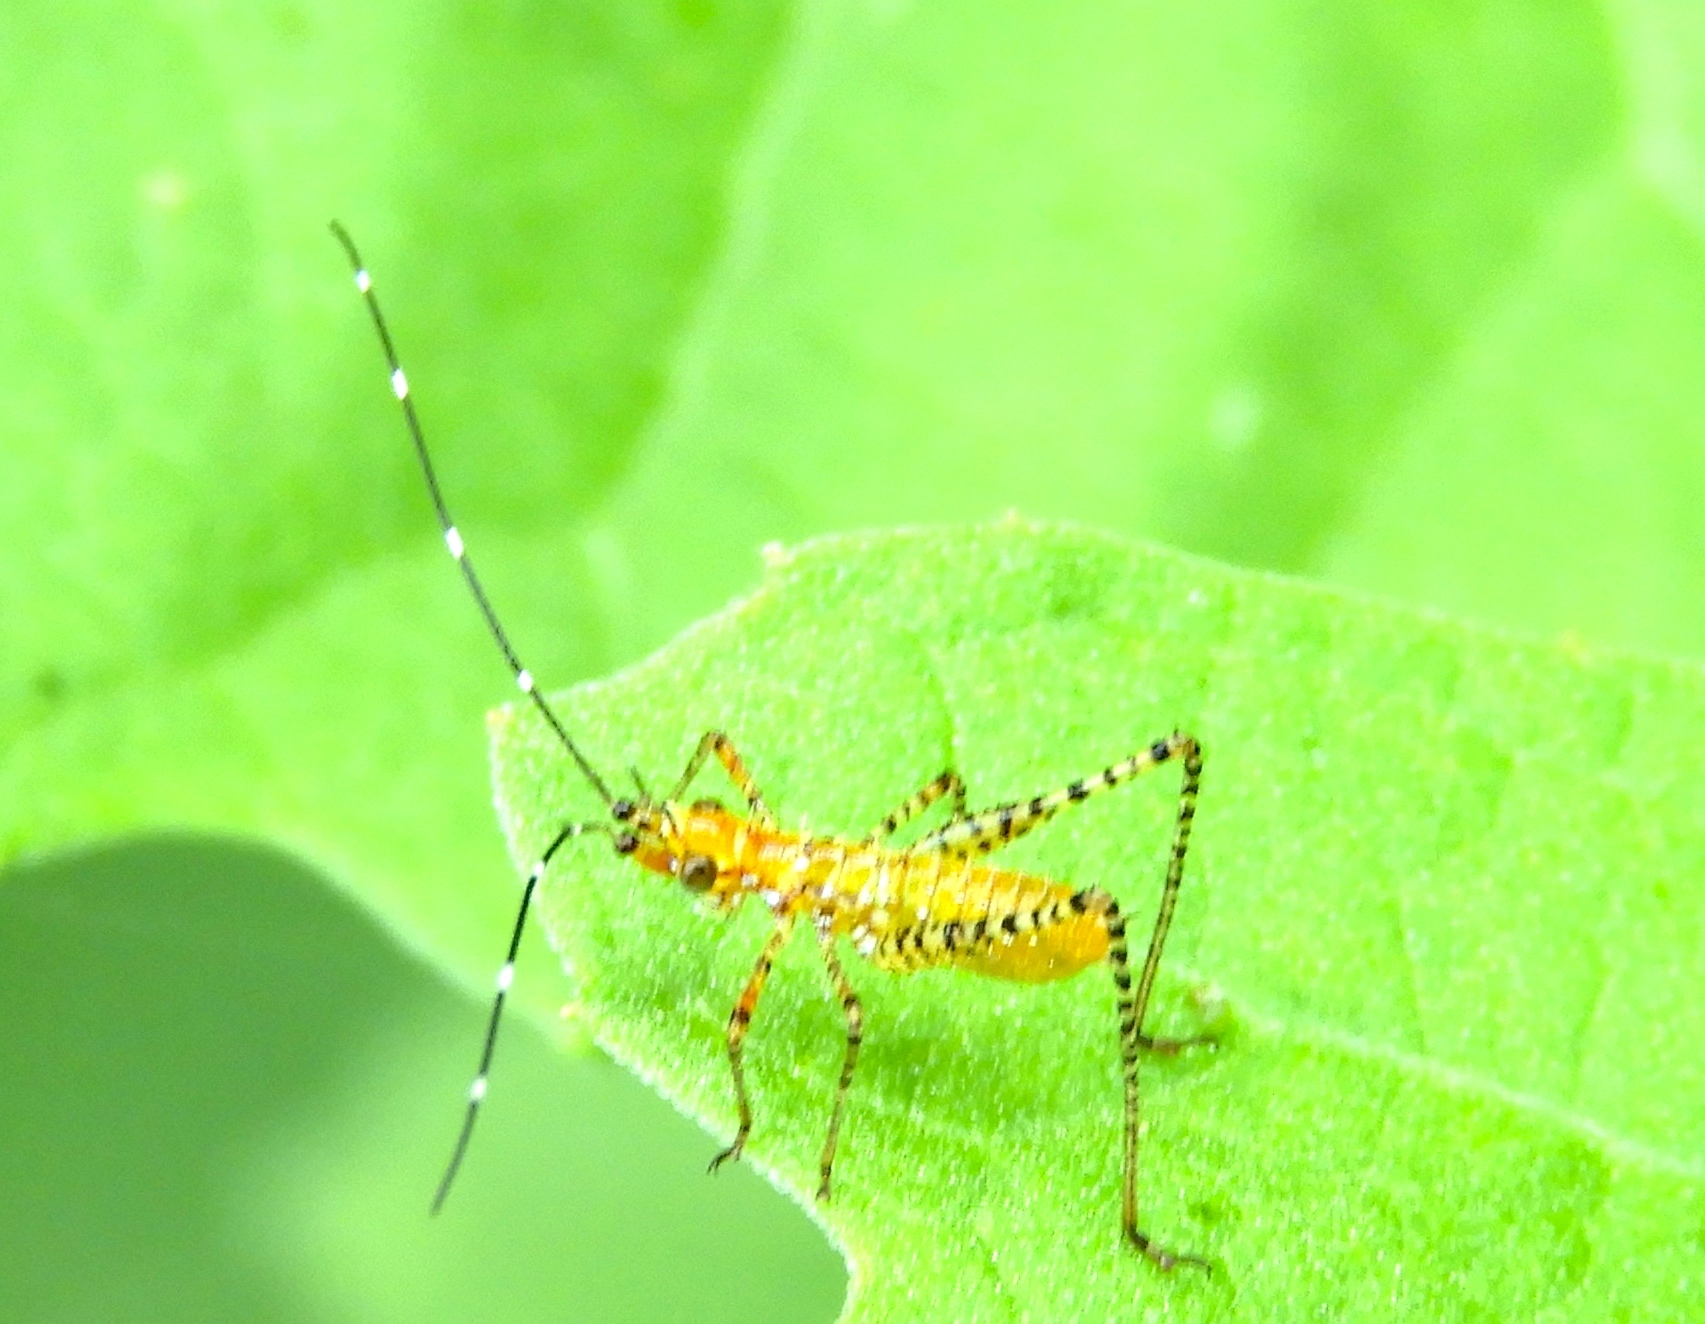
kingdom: Animalia
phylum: Arthropoda
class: Insecta
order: Orthoptera
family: Tettigoniidae
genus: Scudderia
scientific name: Scudderia
